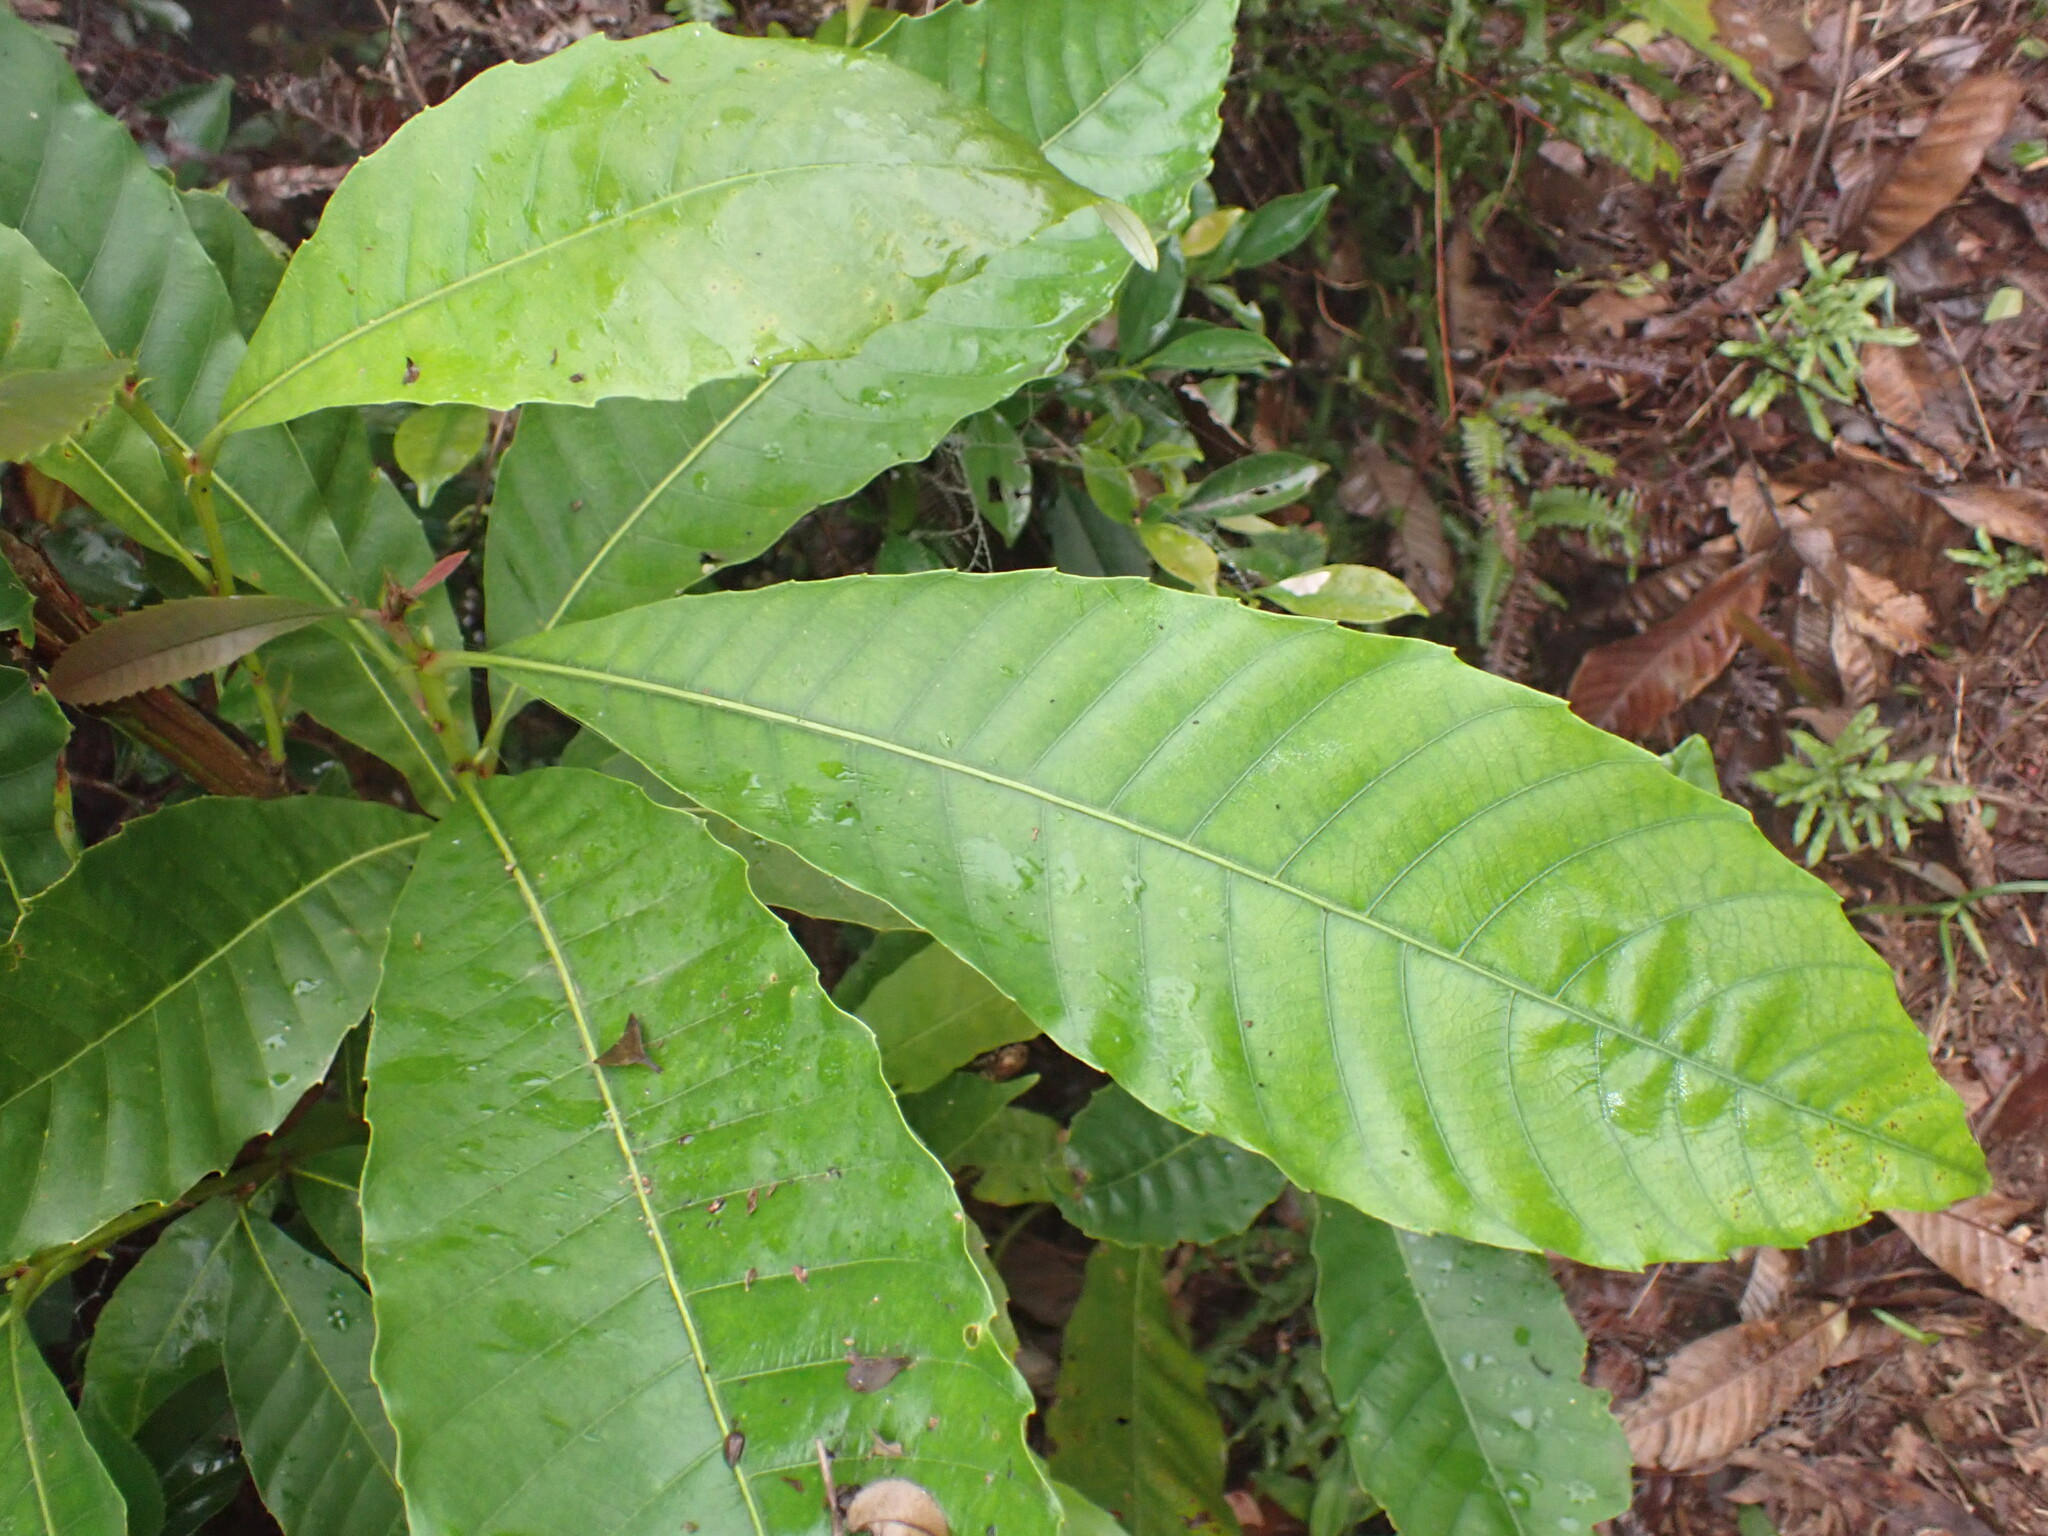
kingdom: Plantae
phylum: Tracheophyta
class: Magnoliopsida
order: Fagales
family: Fagaceae
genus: Castanopsis
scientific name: Castanopsis fissa
